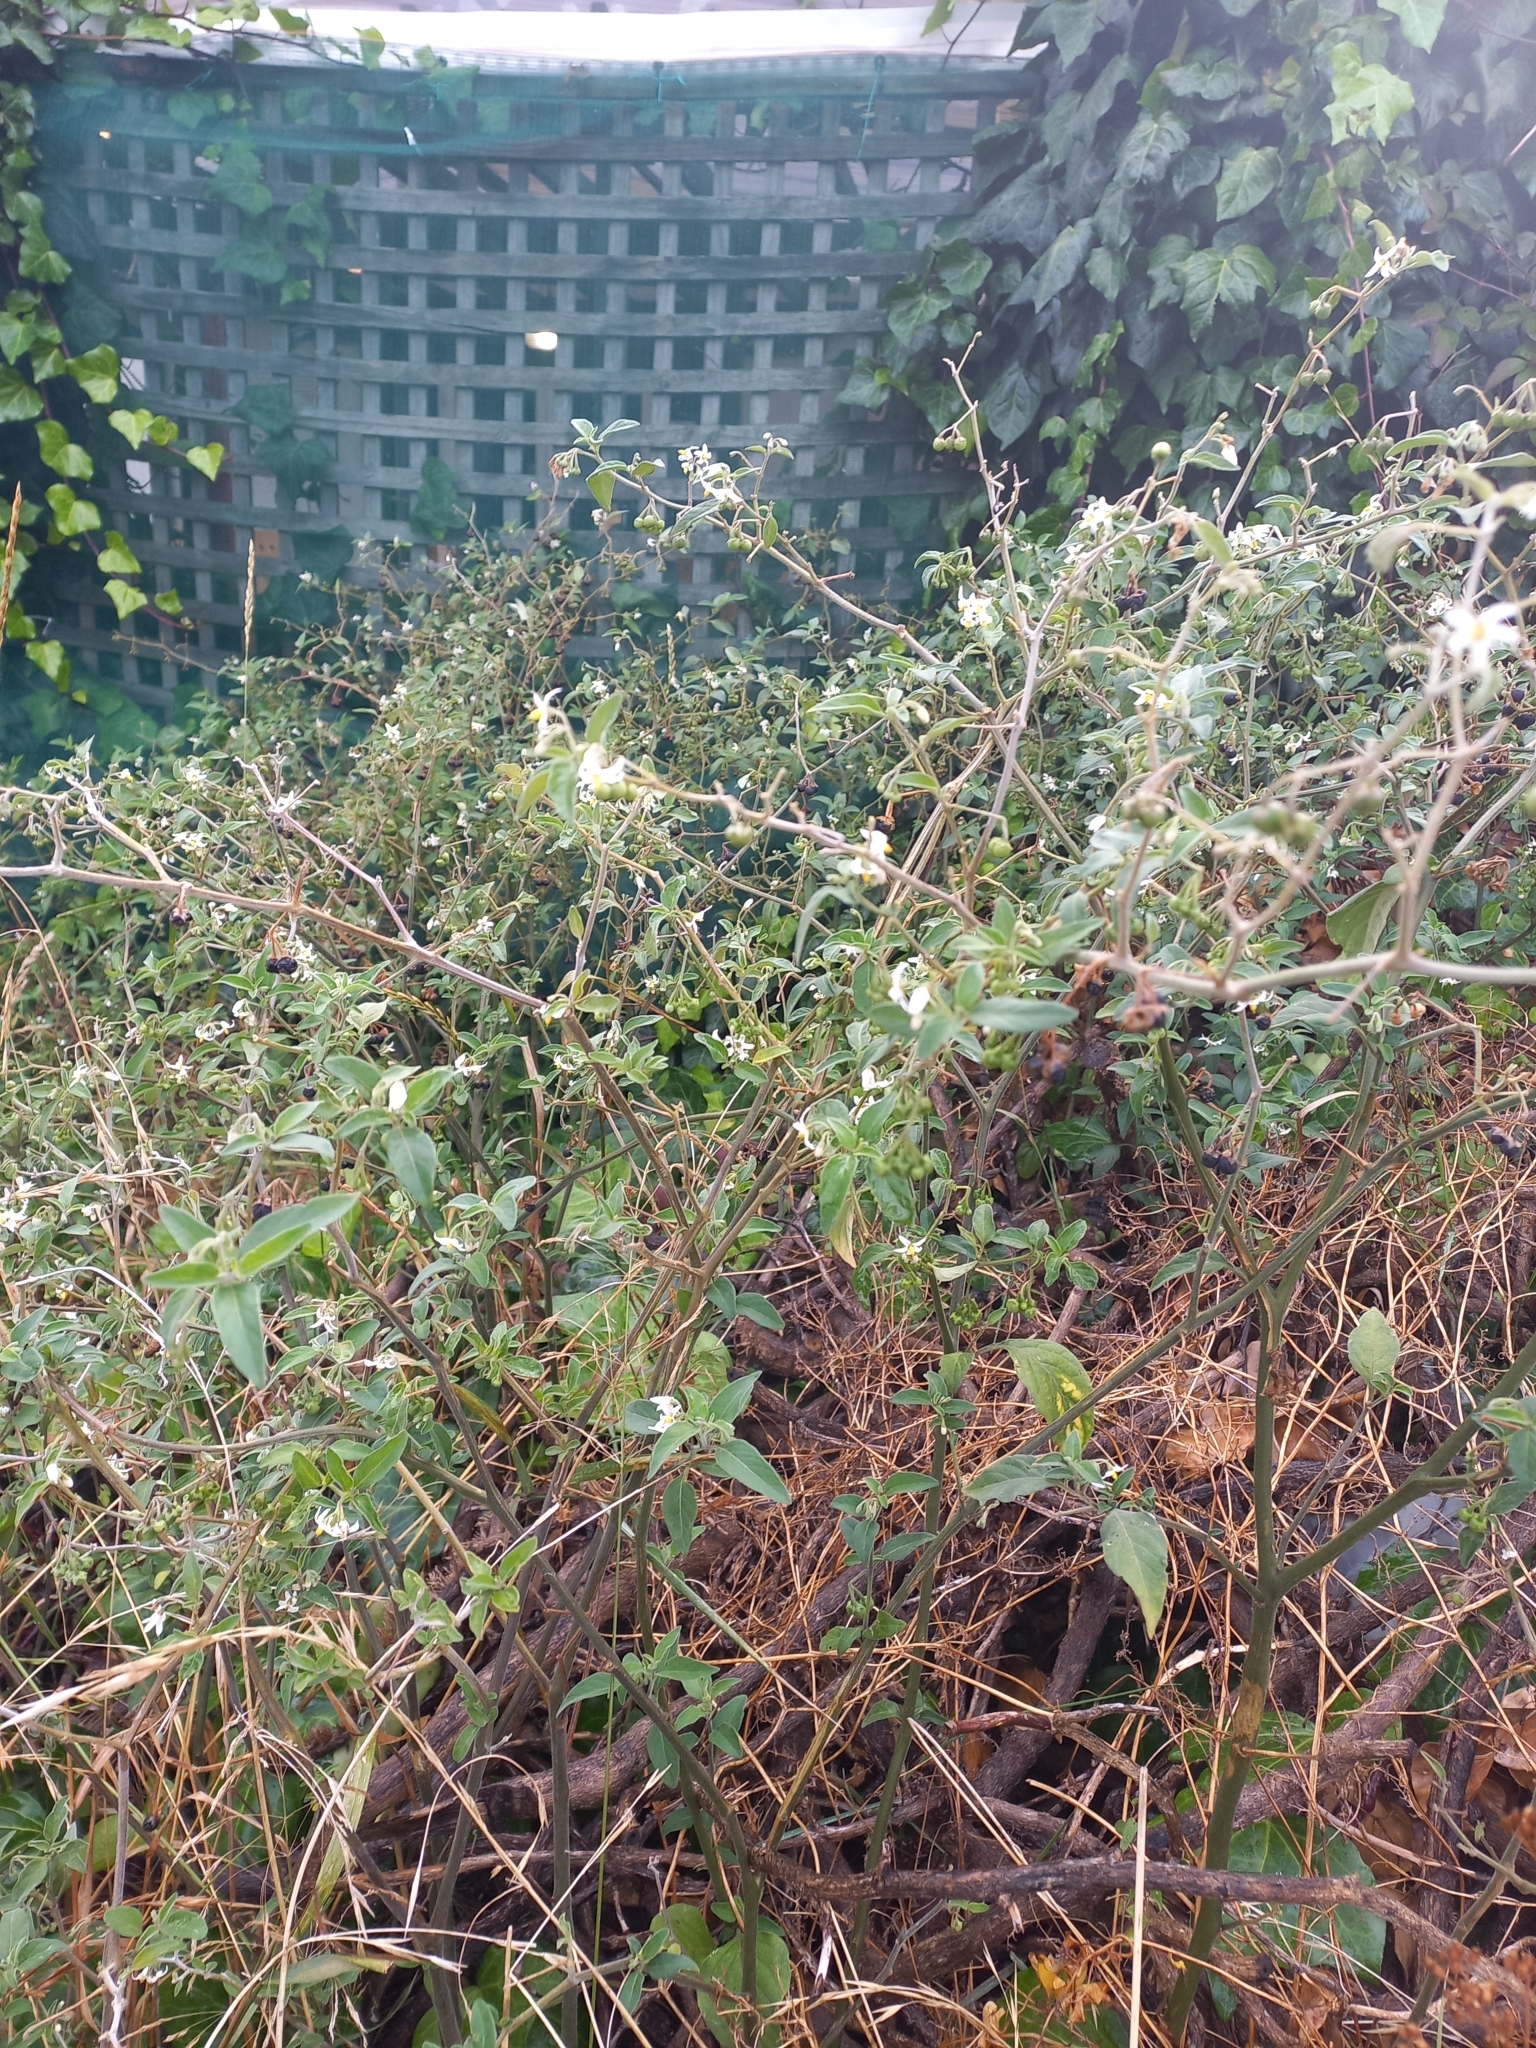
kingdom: Plantae
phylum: Tracheophyta
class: Magnoliopsida
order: Solanales
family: Solanaceae
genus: Solanum
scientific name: Solanum chenopodioides
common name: Tall nightshade
